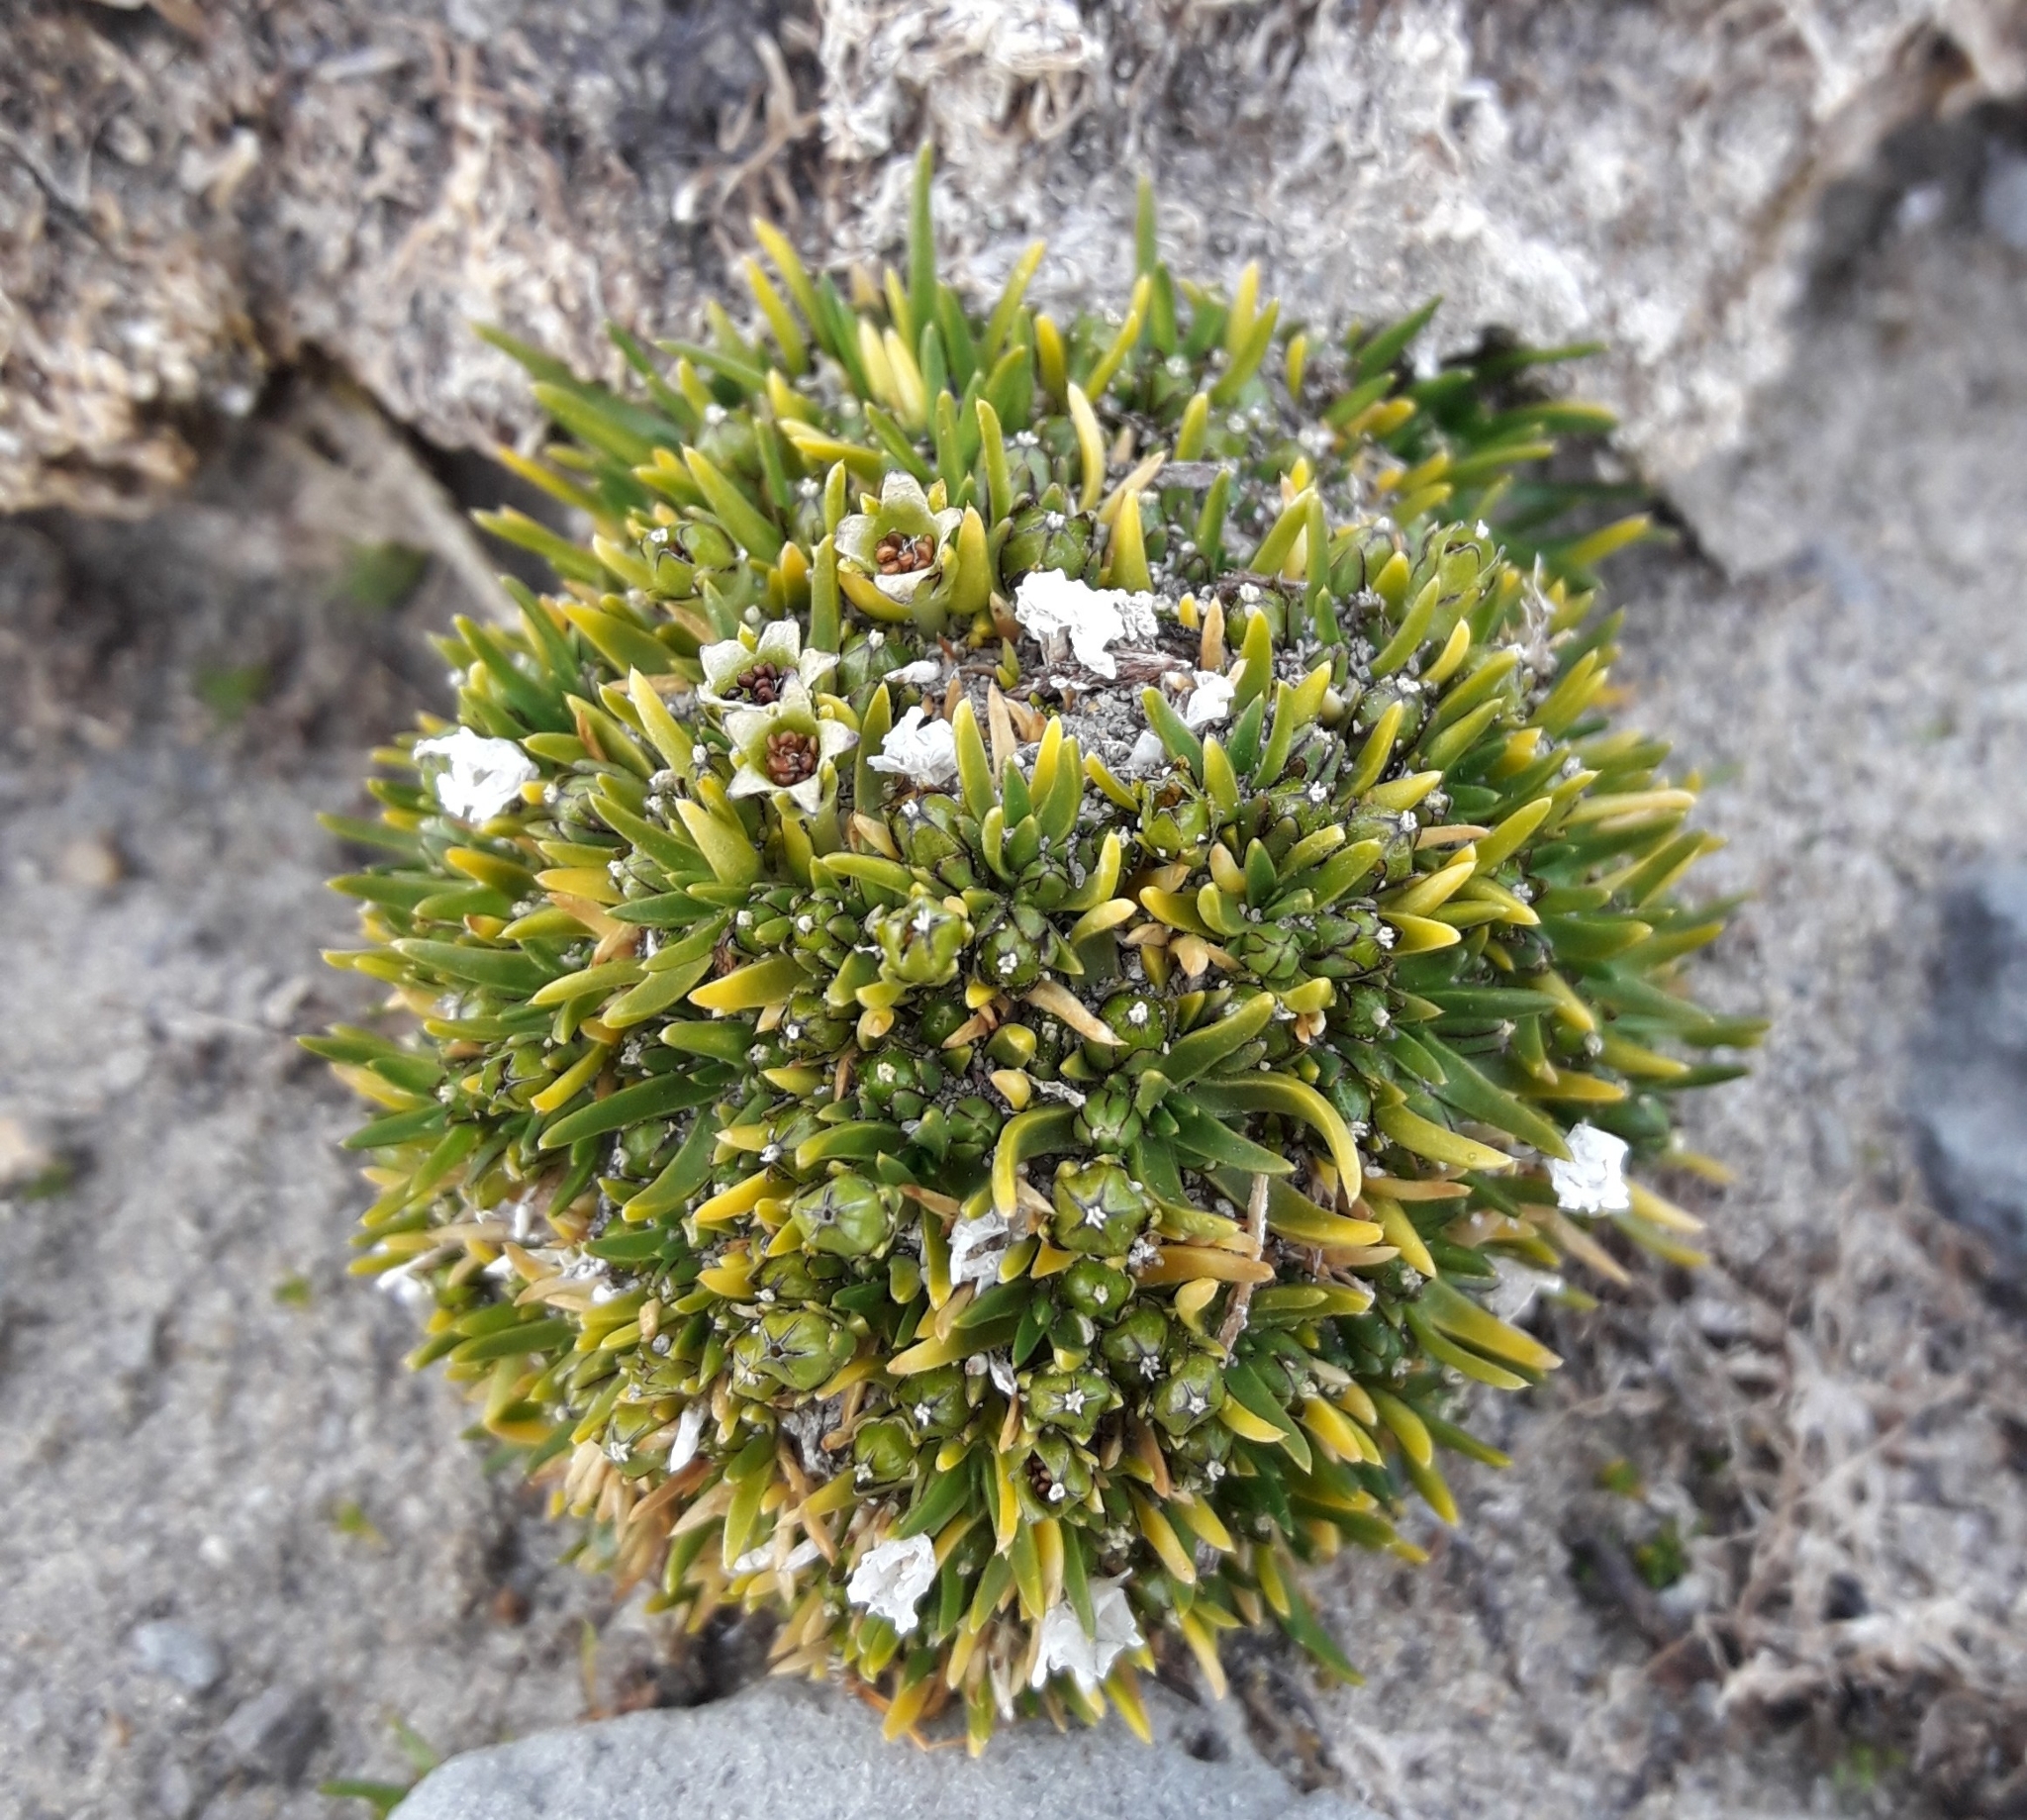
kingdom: Plantae
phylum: Tracheophyta
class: Magnoliopsida
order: Caryophyllales
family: Caryophyllaceae
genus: Colobanthus
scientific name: Colobanthus quitensis
